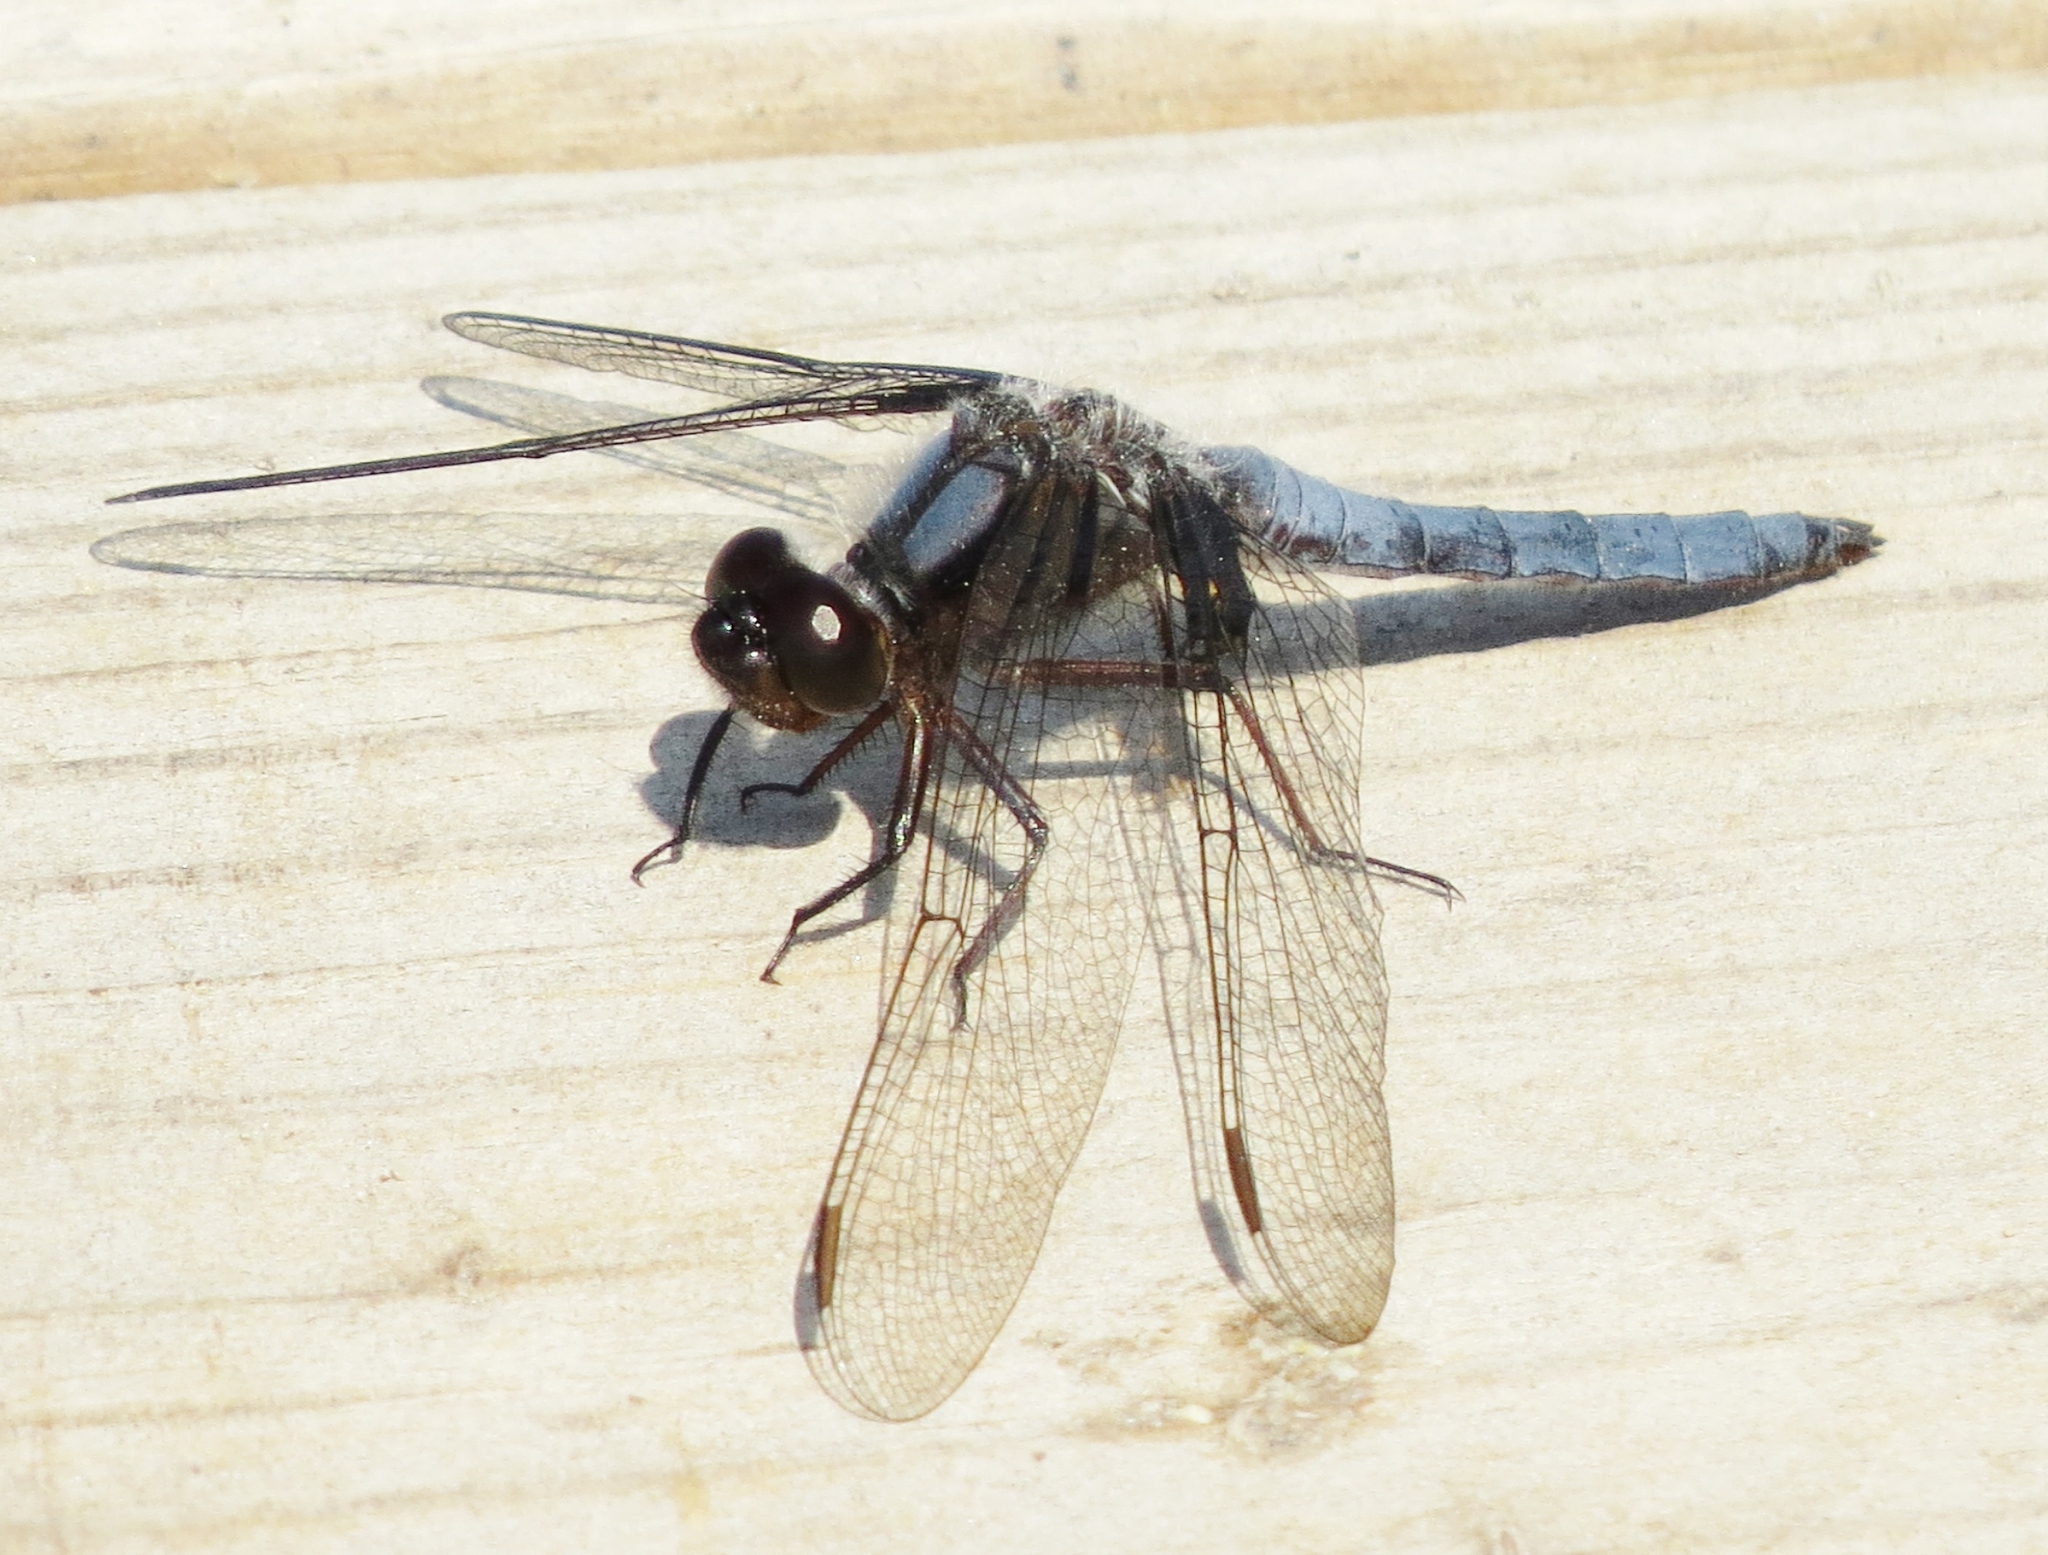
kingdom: Animalia
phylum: Arthropoda
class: Insecta
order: Odonata
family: Libellulidae
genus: Ladona
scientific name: Ladona deplanata
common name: Blue corporal
